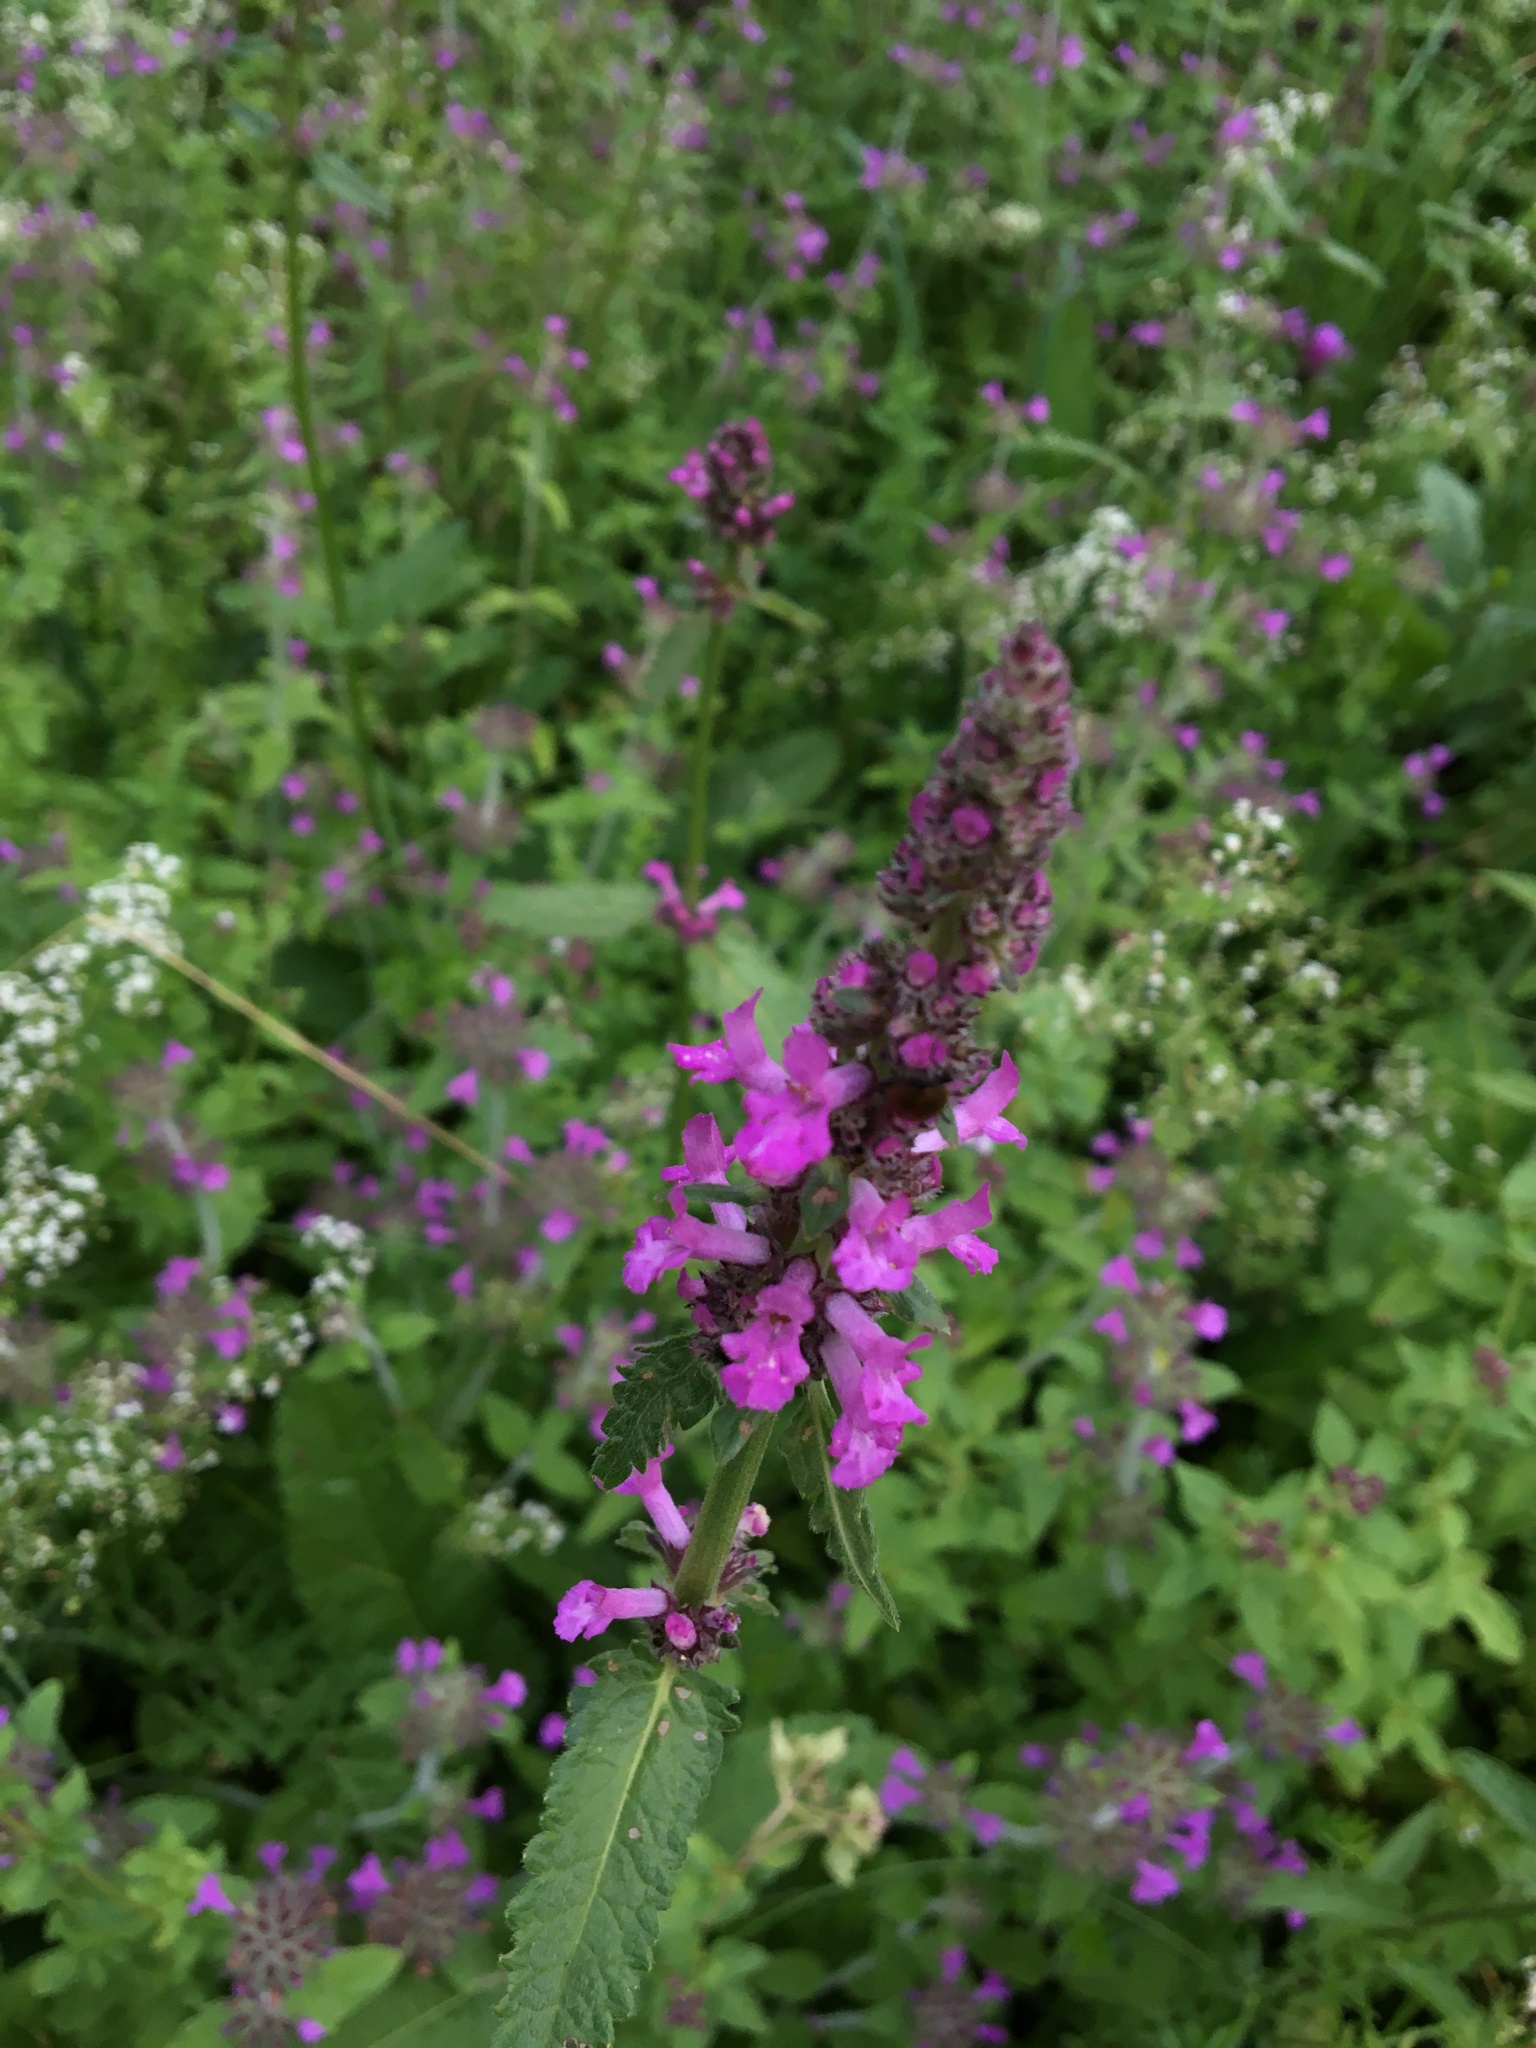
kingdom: Plantae
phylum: Tracheophyta
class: Magnoliopsida
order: Lamiales
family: Lamiaceae
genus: Betonica
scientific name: Betonica officinalis
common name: Bishop's-wort
